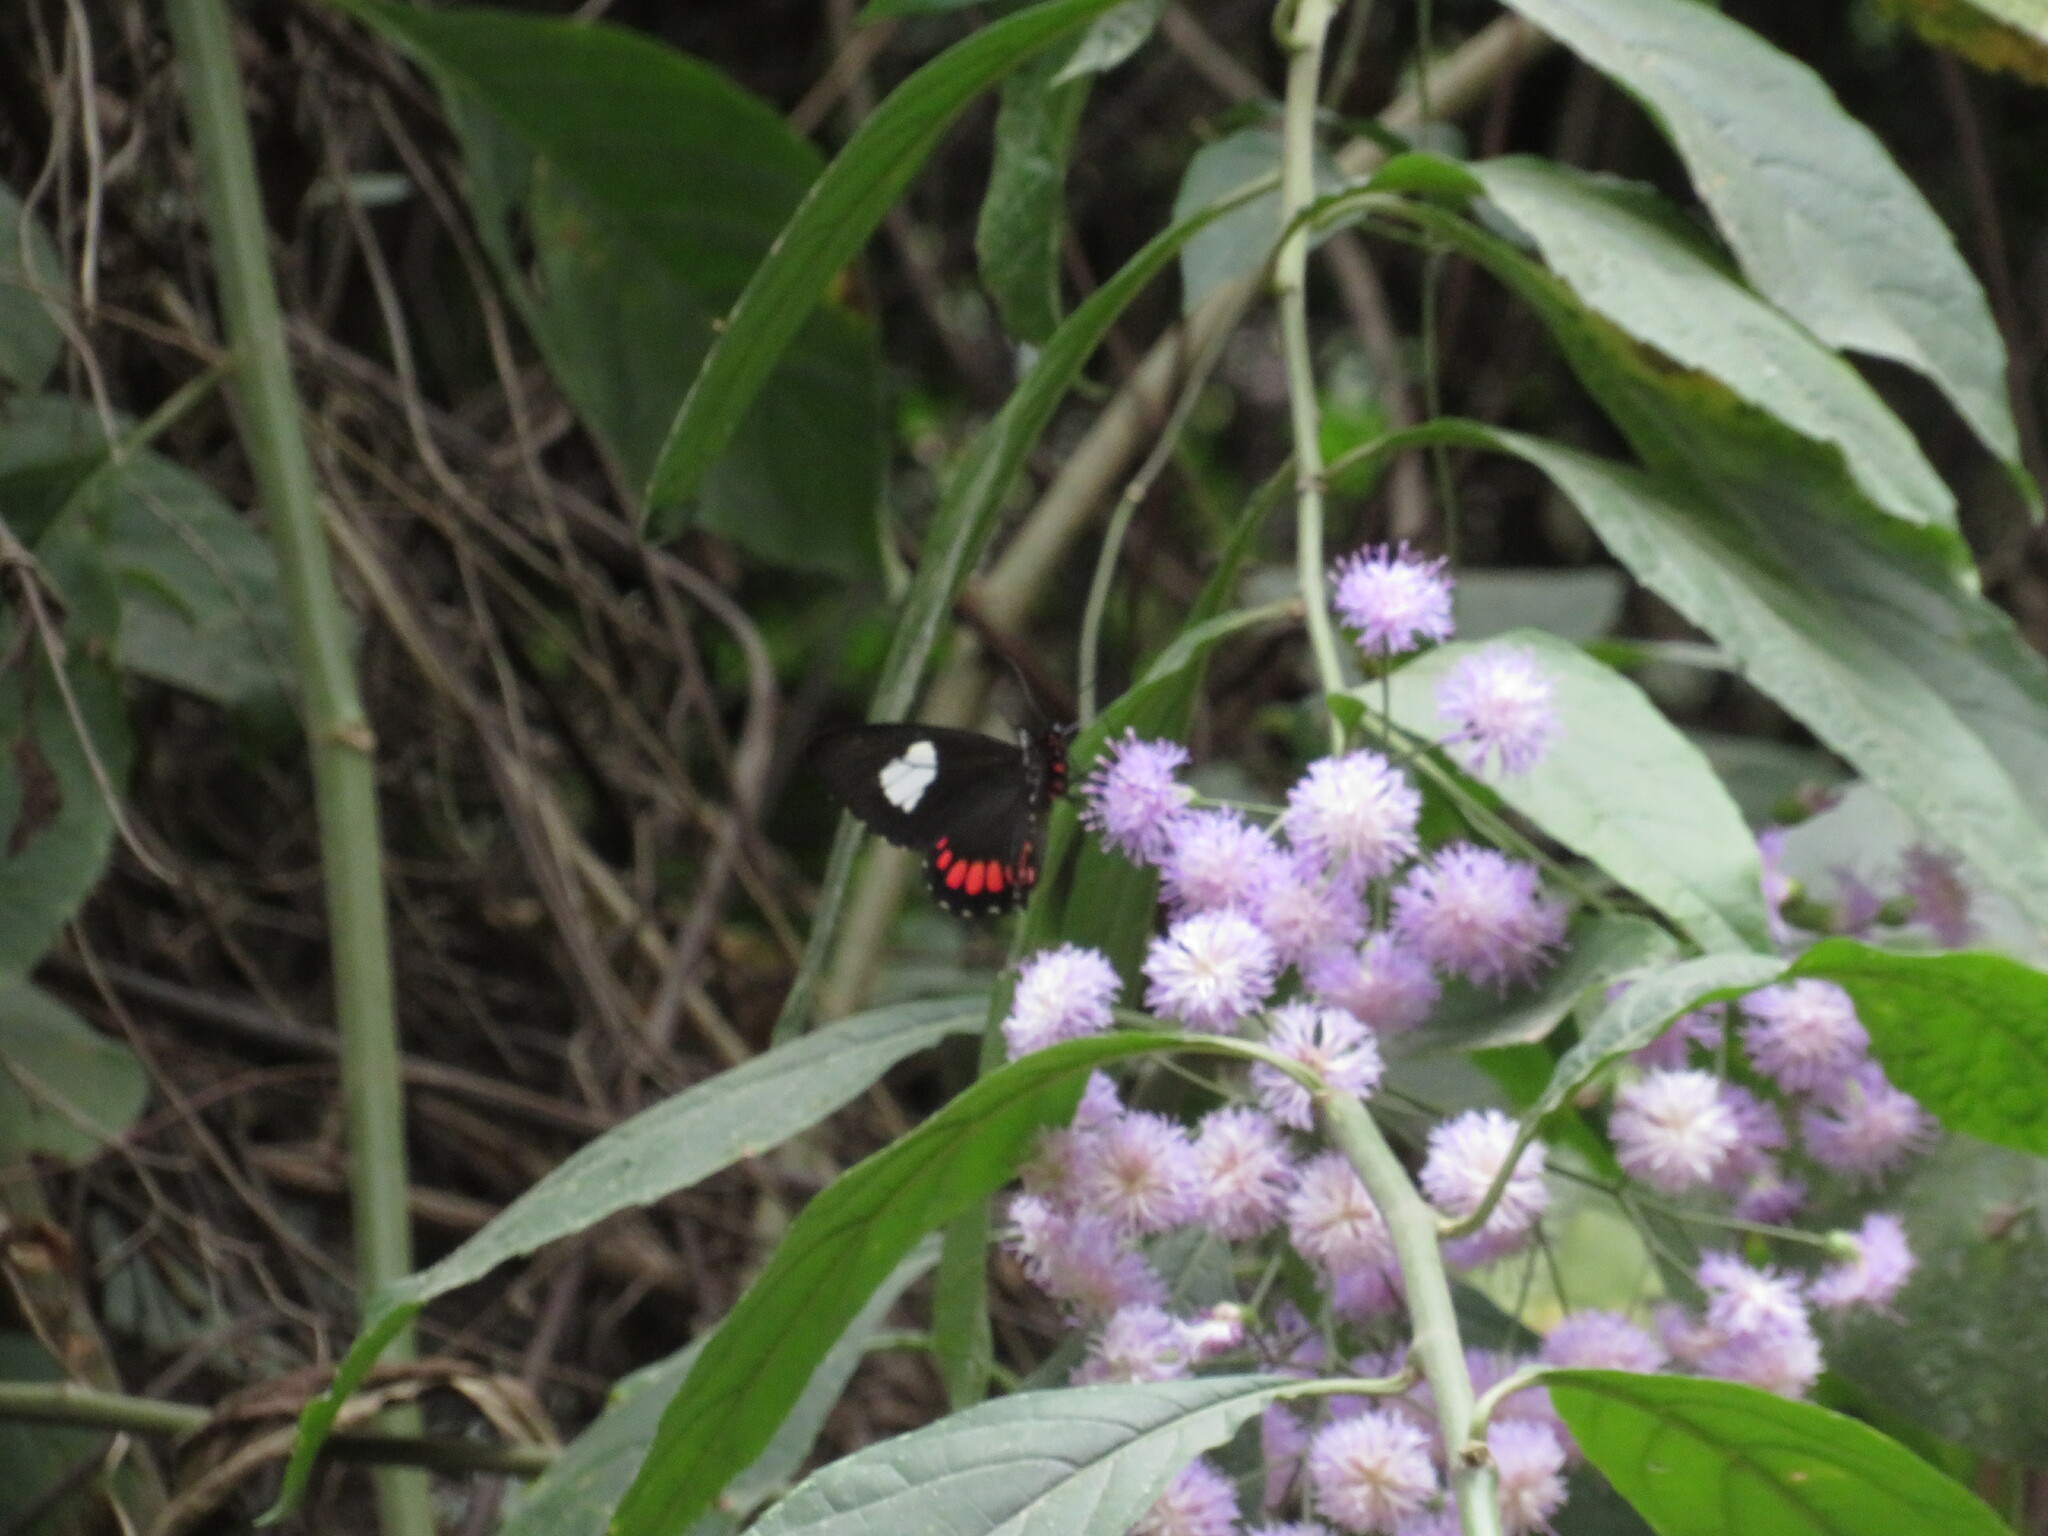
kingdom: Animalia
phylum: Arthropoda
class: Insecta
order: Lepidoptera
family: Papilionidae
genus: Parides
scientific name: Parides erithalion
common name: Variable cattleheart
